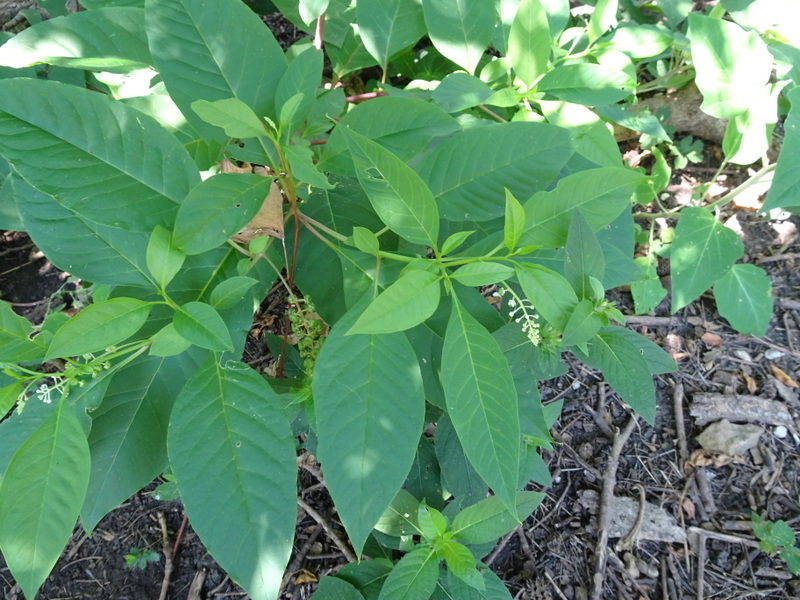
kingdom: Plantae
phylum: Tracheophyta
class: Magnoliopsida
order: Caryophyllales
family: Phytolaccaceae
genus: Phytolacca
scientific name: Phytolacca americana
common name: American pokeweed
